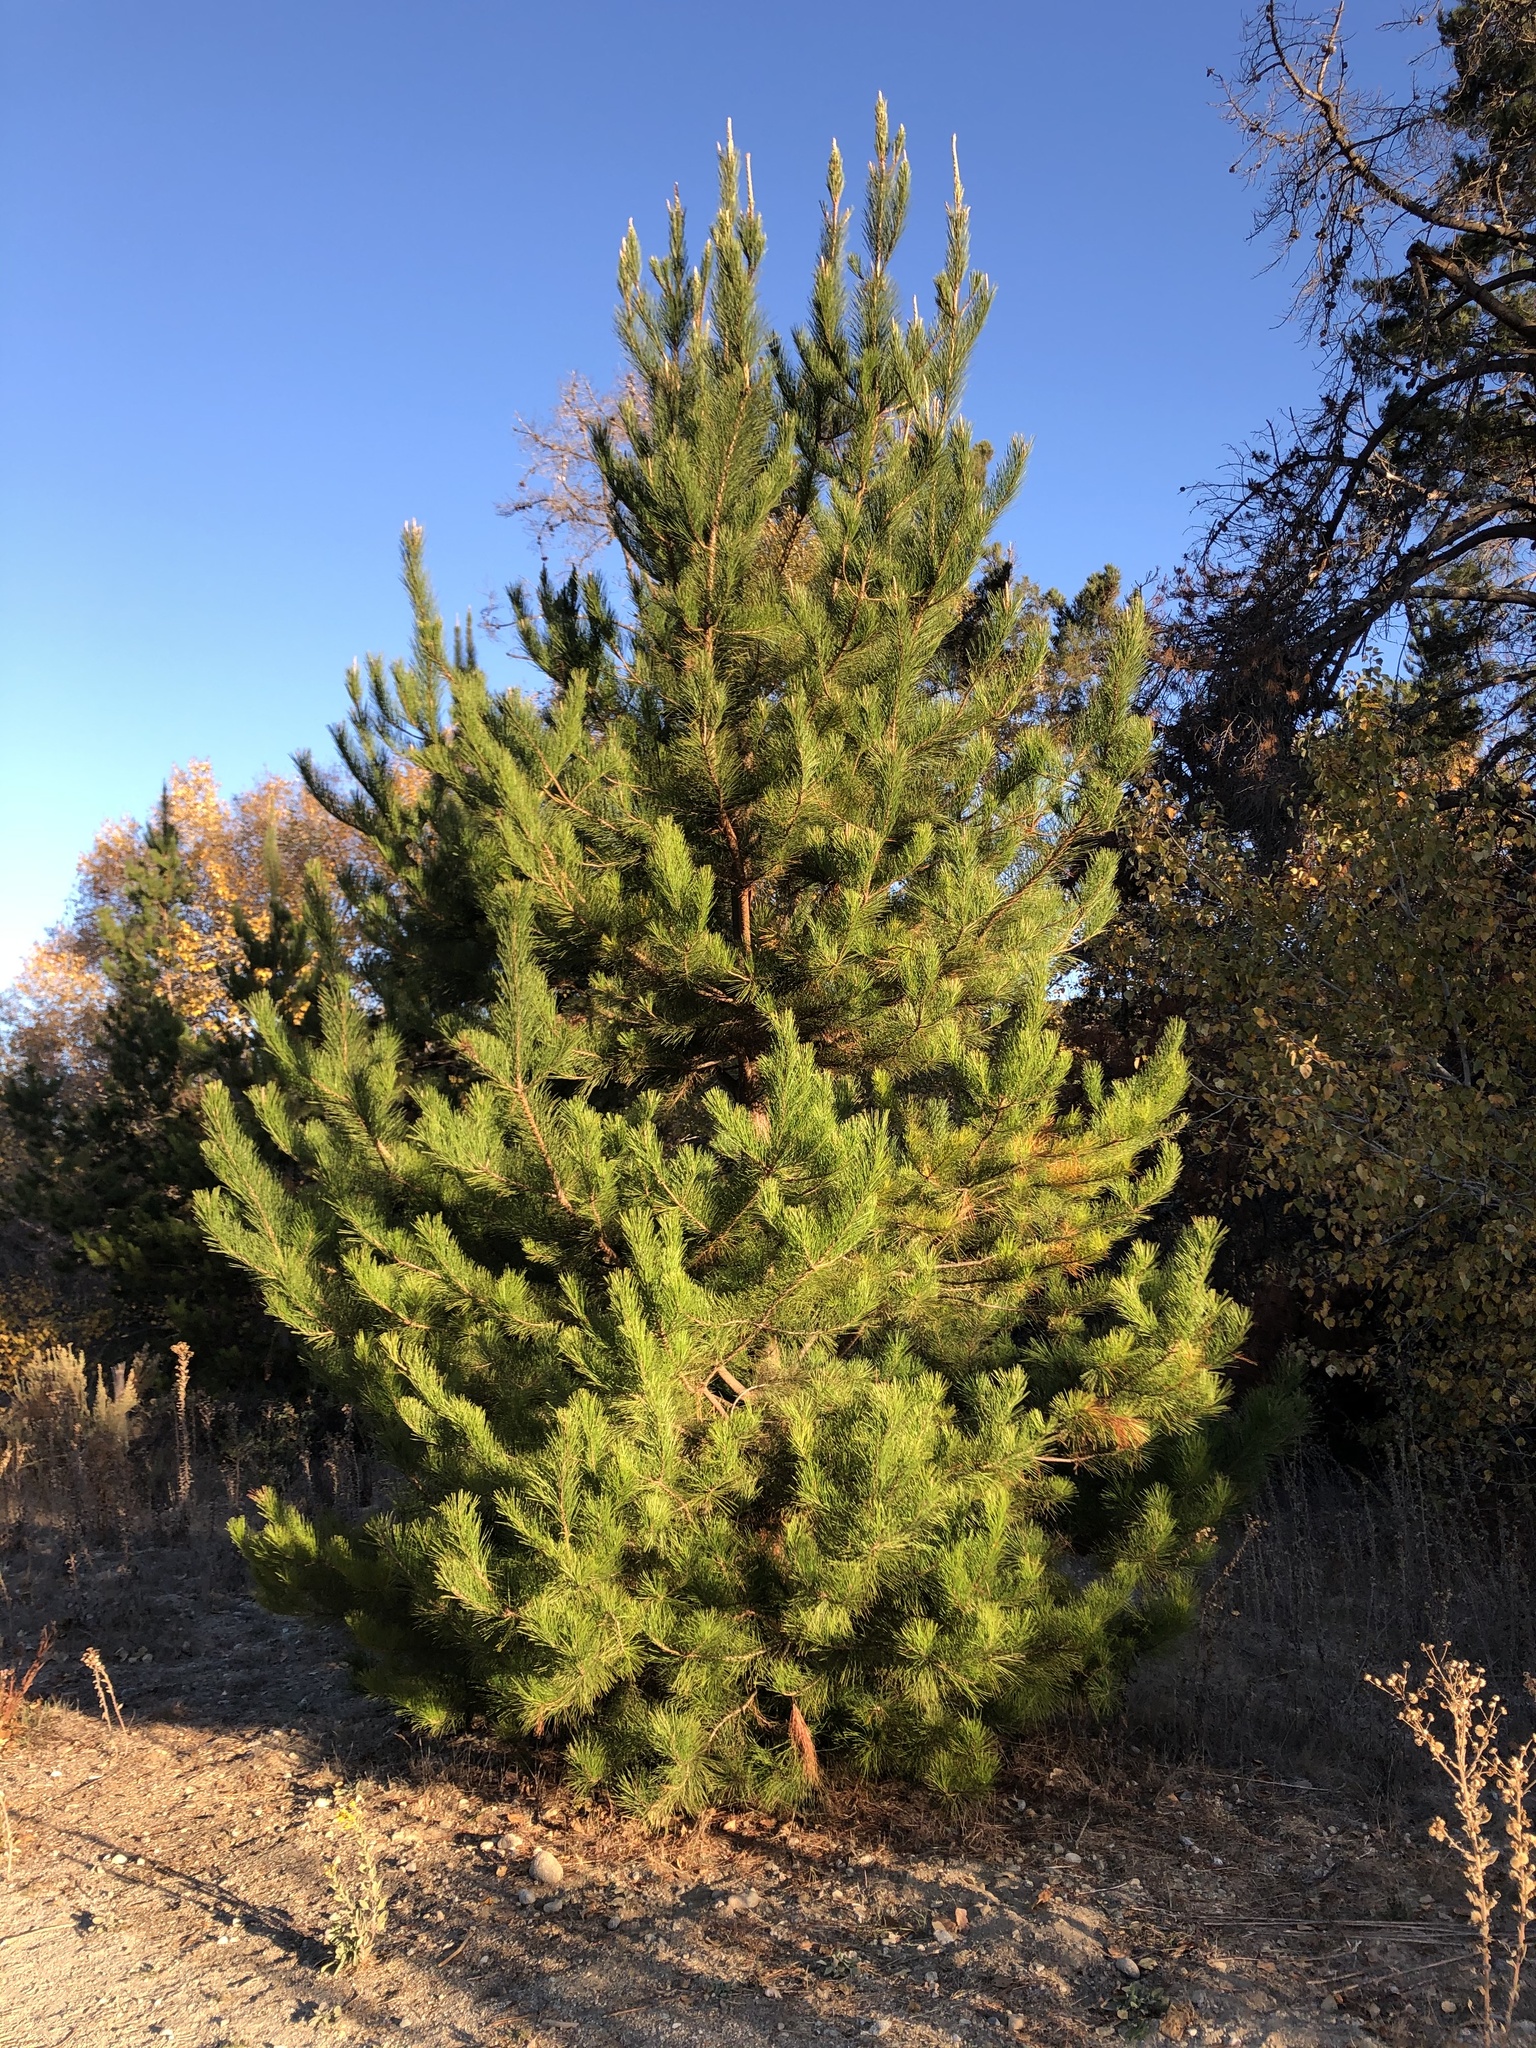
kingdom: Plantae
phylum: Tracheophyta
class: Pinopsida
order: Pinales
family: Pinaceae
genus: Pinus
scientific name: Pinus radiata
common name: Monterey pine
